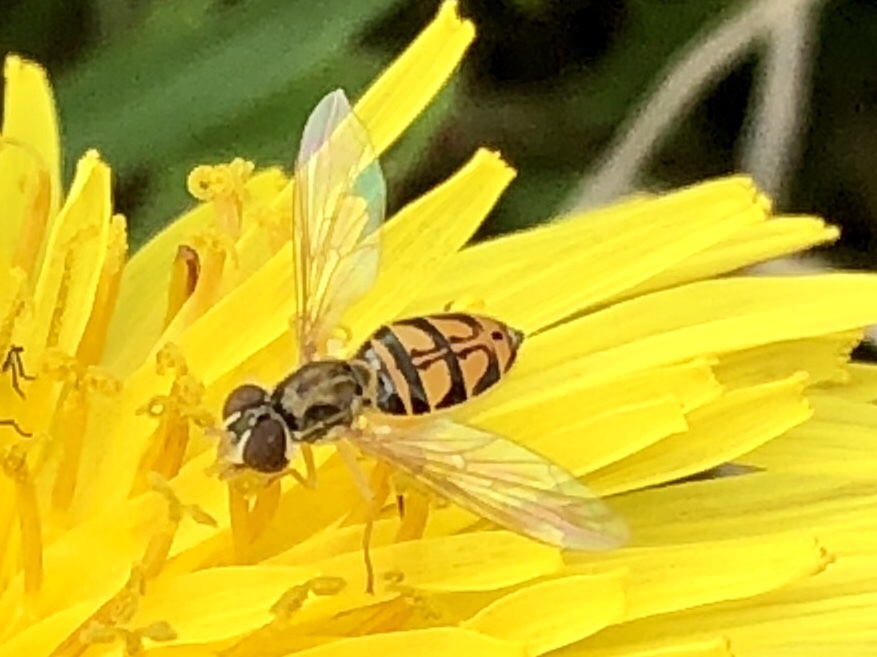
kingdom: Animalia
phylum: Arthropoda
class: Insecta
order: Diptera
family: Syrphidae
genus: Toxomerus
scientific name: Toxomerus marginatus
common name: Syrphid fly
